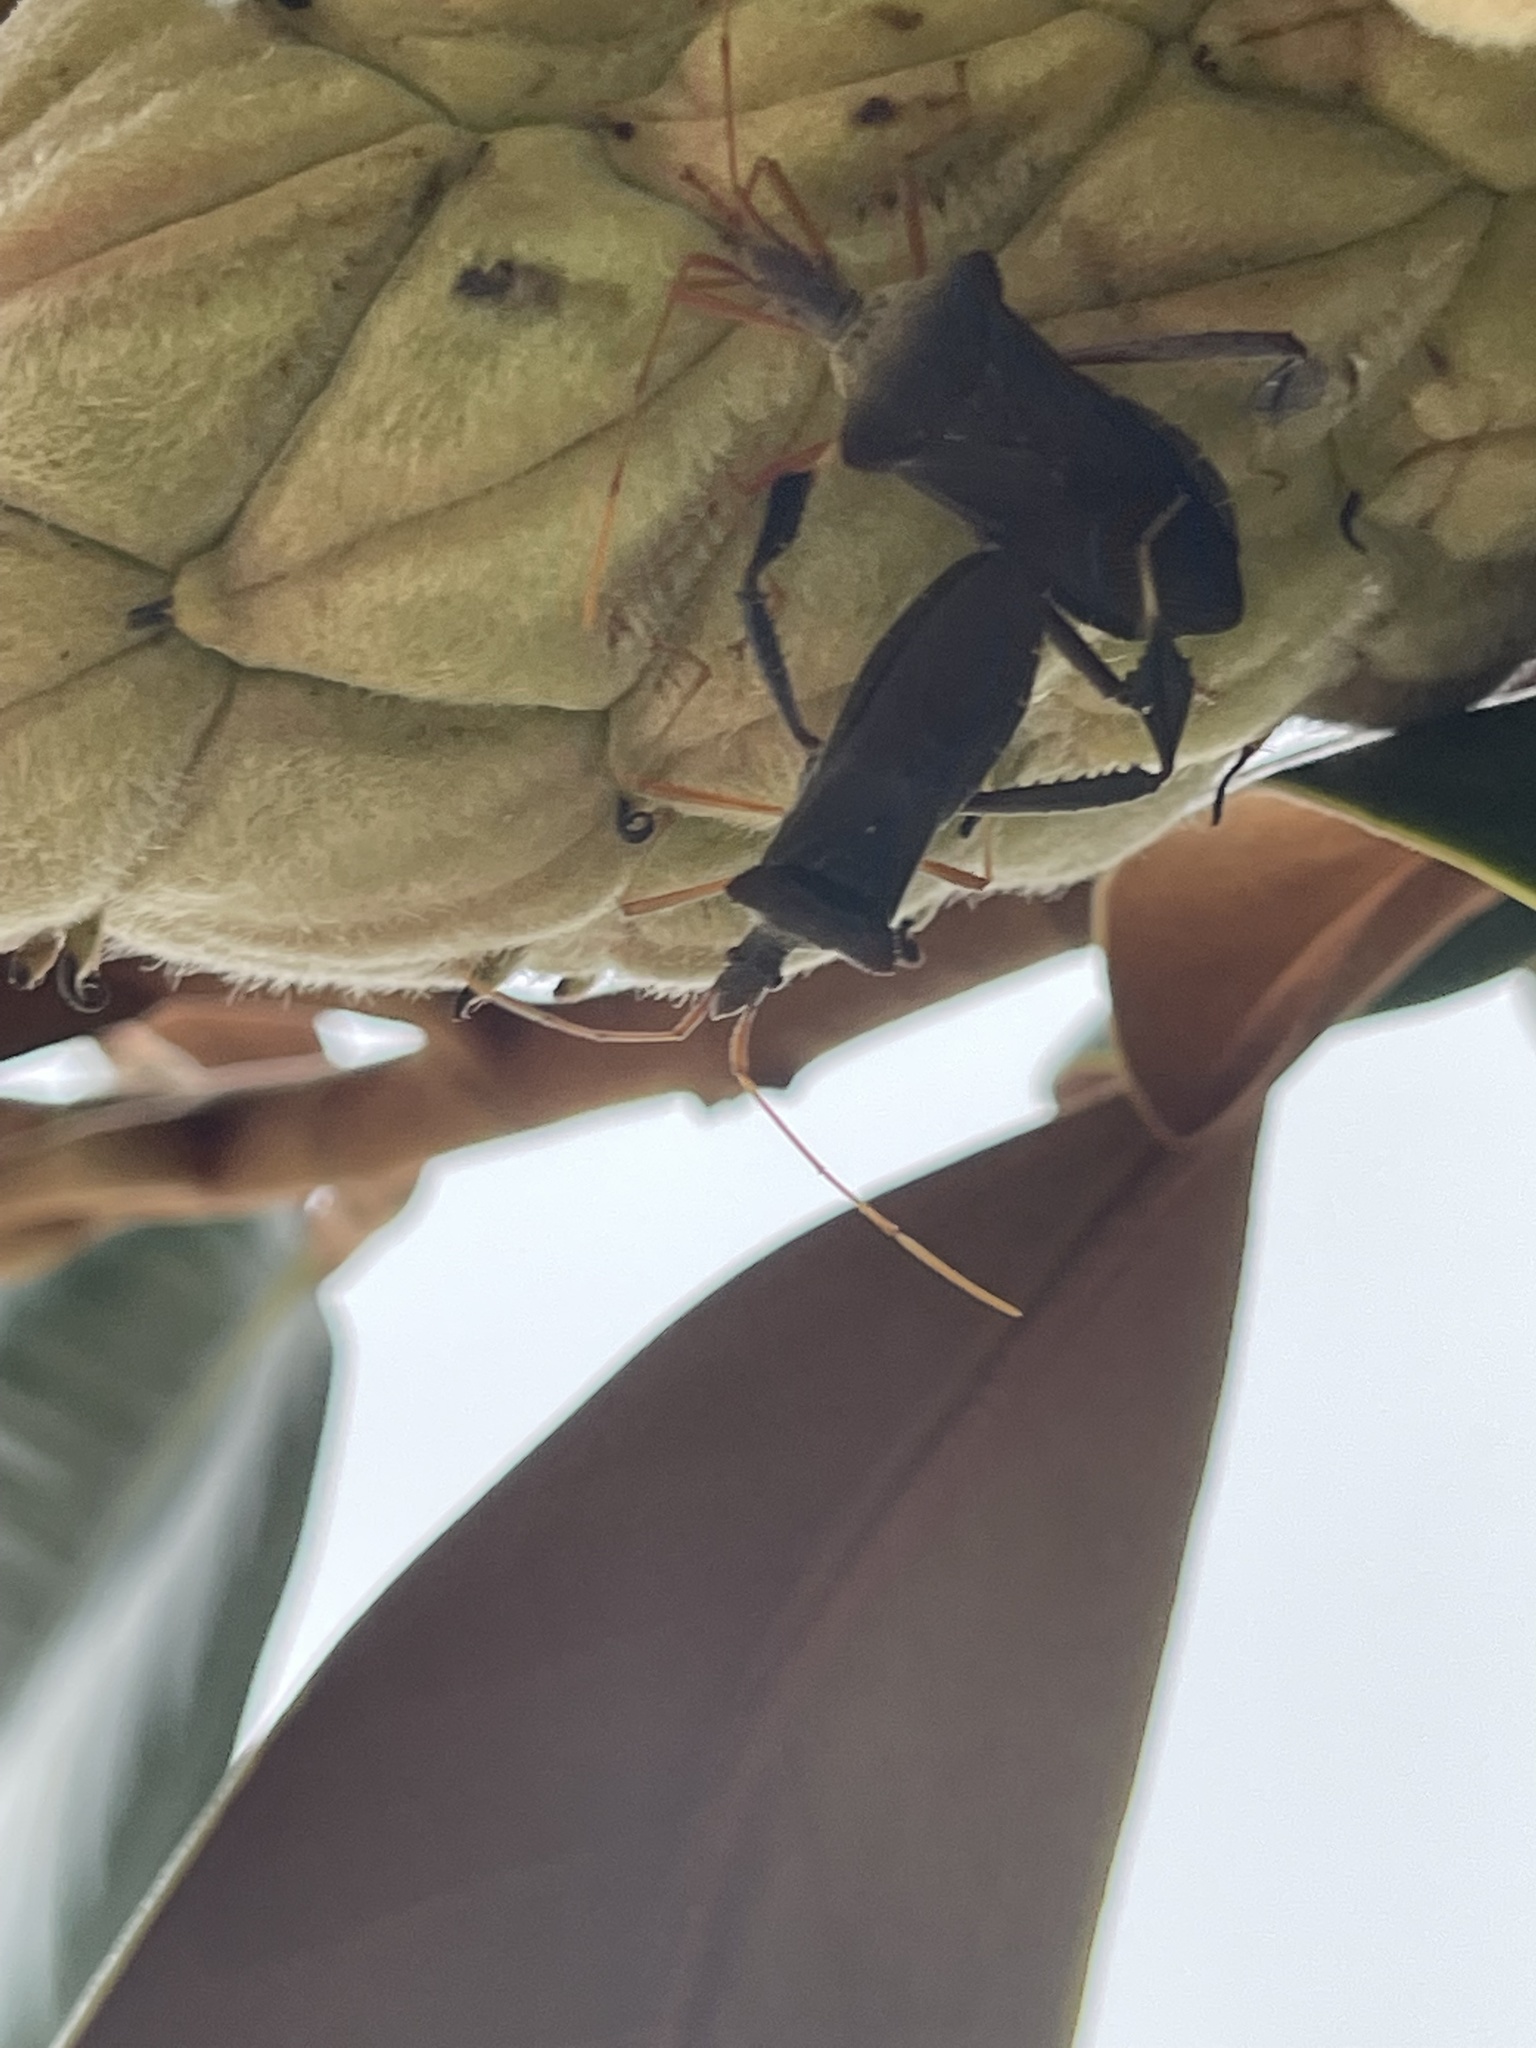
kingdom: Animalia
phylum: Arthropoda
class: Insecta
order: Hemiptera
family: Coreidae
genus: Leptoglossus
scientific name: Leptoglossus fulvicornis
